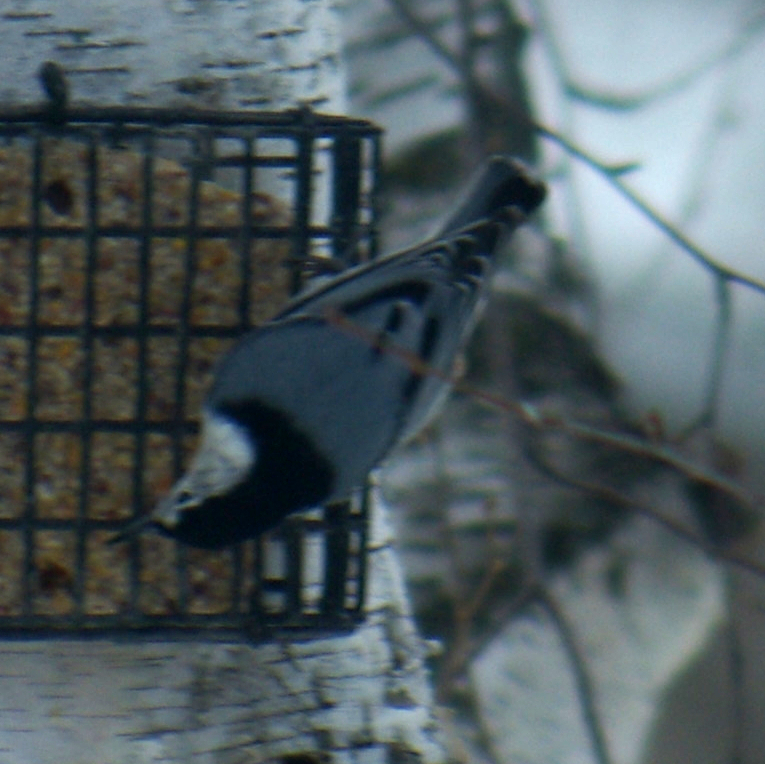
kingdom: Animalia
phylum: Chordata
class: Aves
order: Passeriformes
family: Sittidae
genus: Sitta
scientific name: Sitta carolinensis
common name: White-breasted nuthatch
